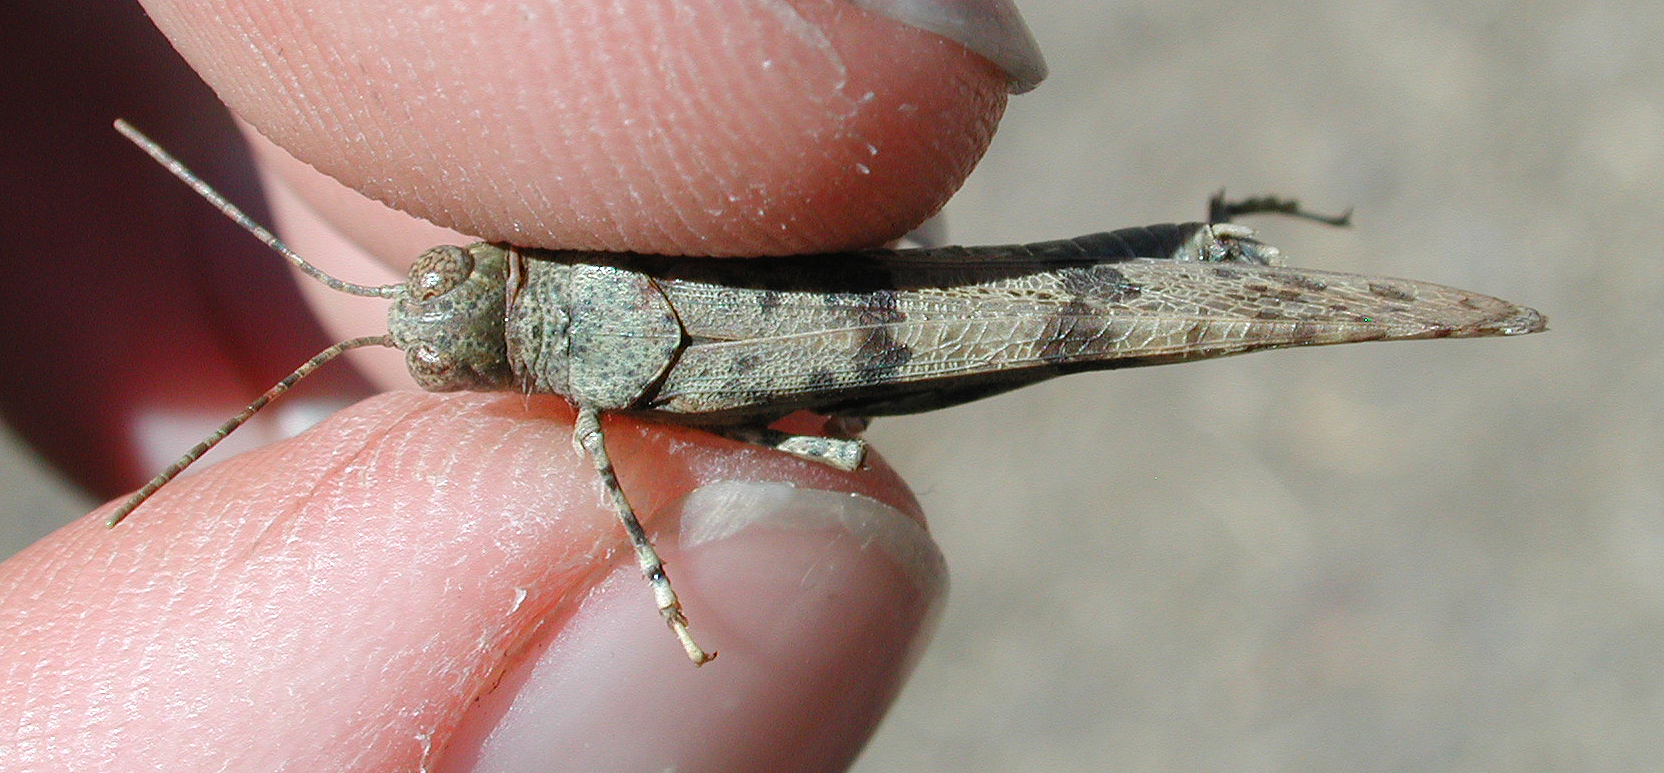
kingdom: Animalia
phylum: Arthropoda
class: Insecta
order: Orthoptera
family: Acrididae
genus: Sphingonotus
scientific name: Sphingonotus willemsei
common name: Cañadas sand grasshopper
